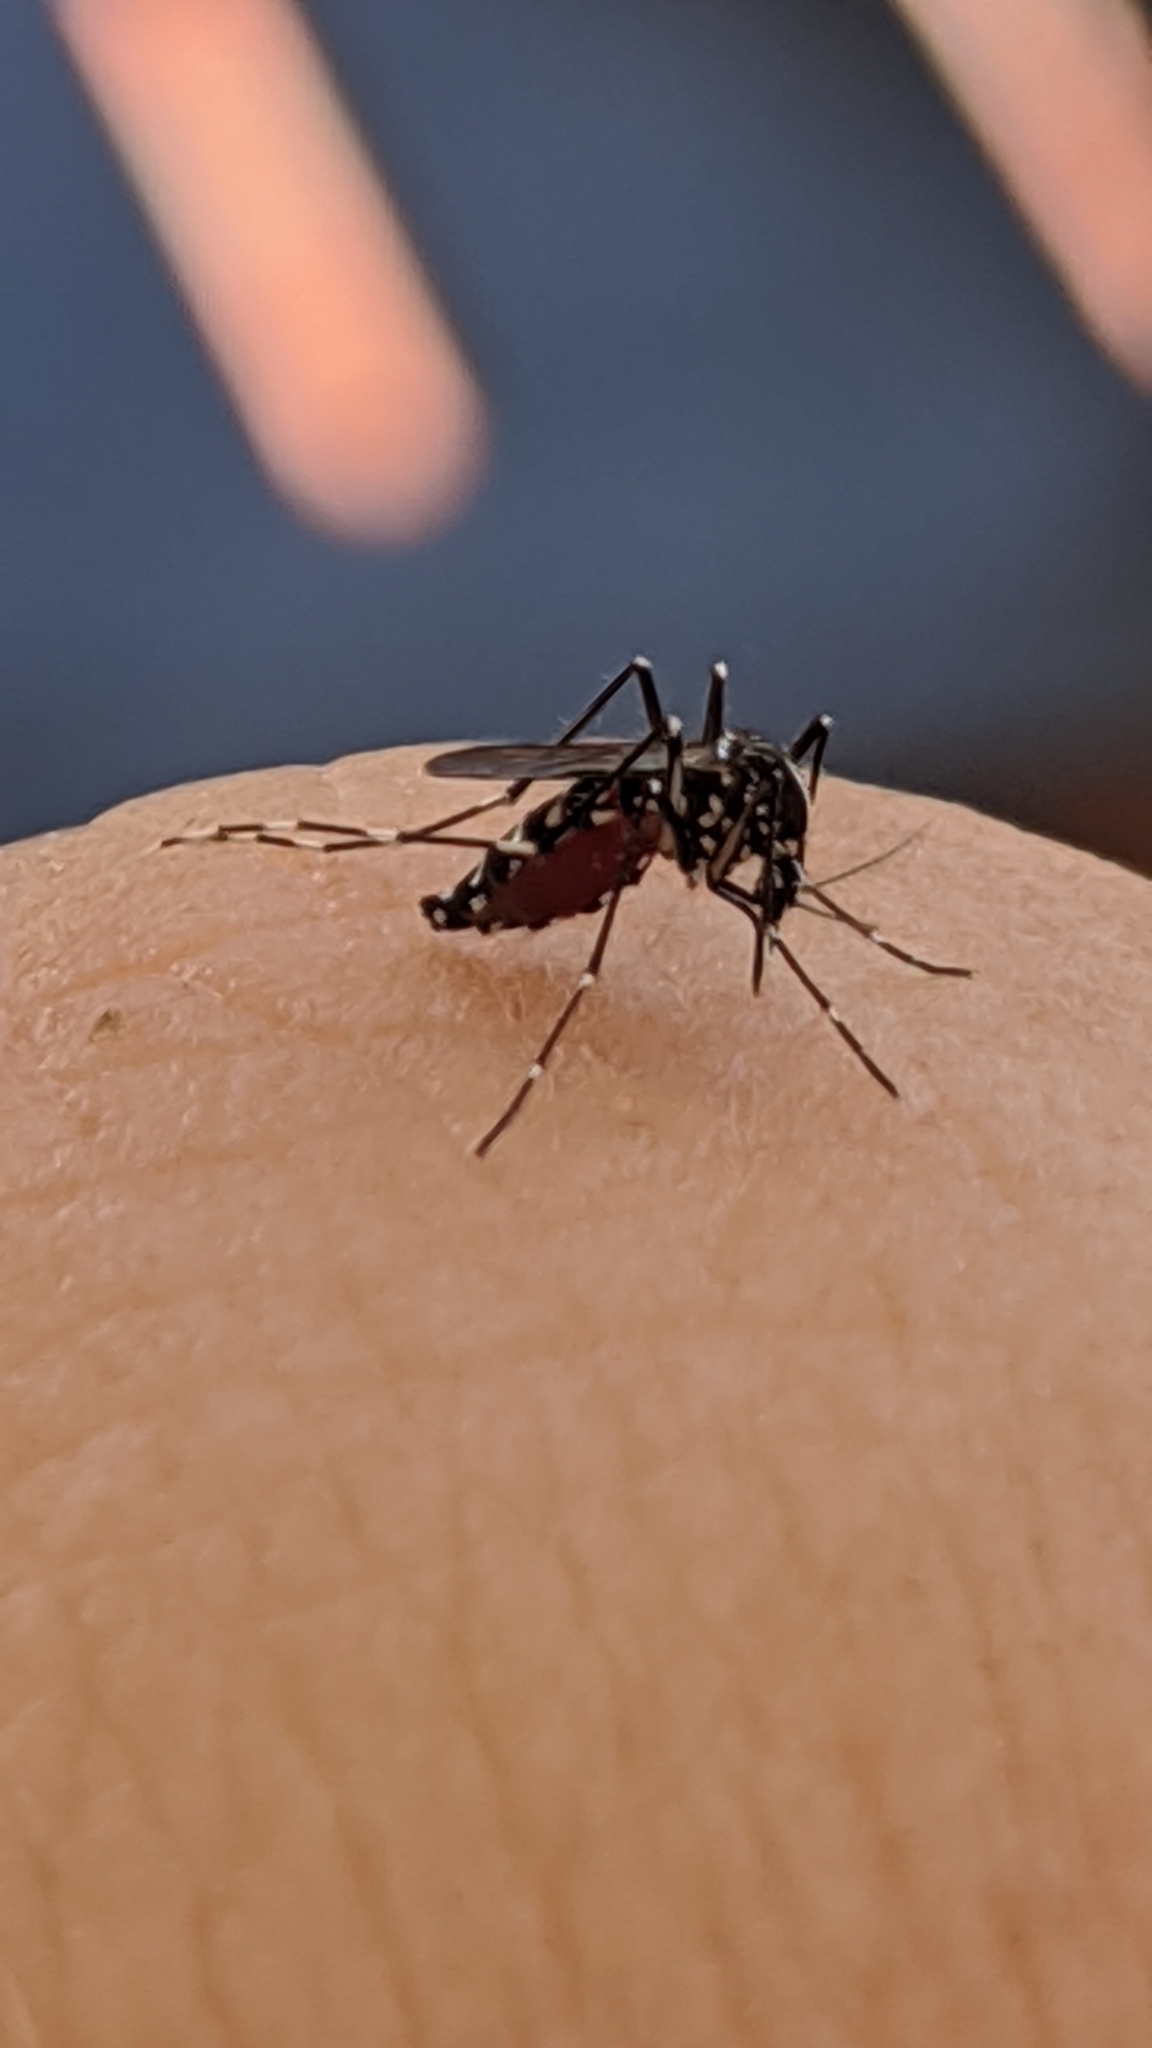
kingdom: Animalia
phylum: Arthropoda
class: Insecta
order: Diptera
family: Culicidae
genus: Aedes
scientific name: Aedes albopictus
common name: Tiger mosquito
